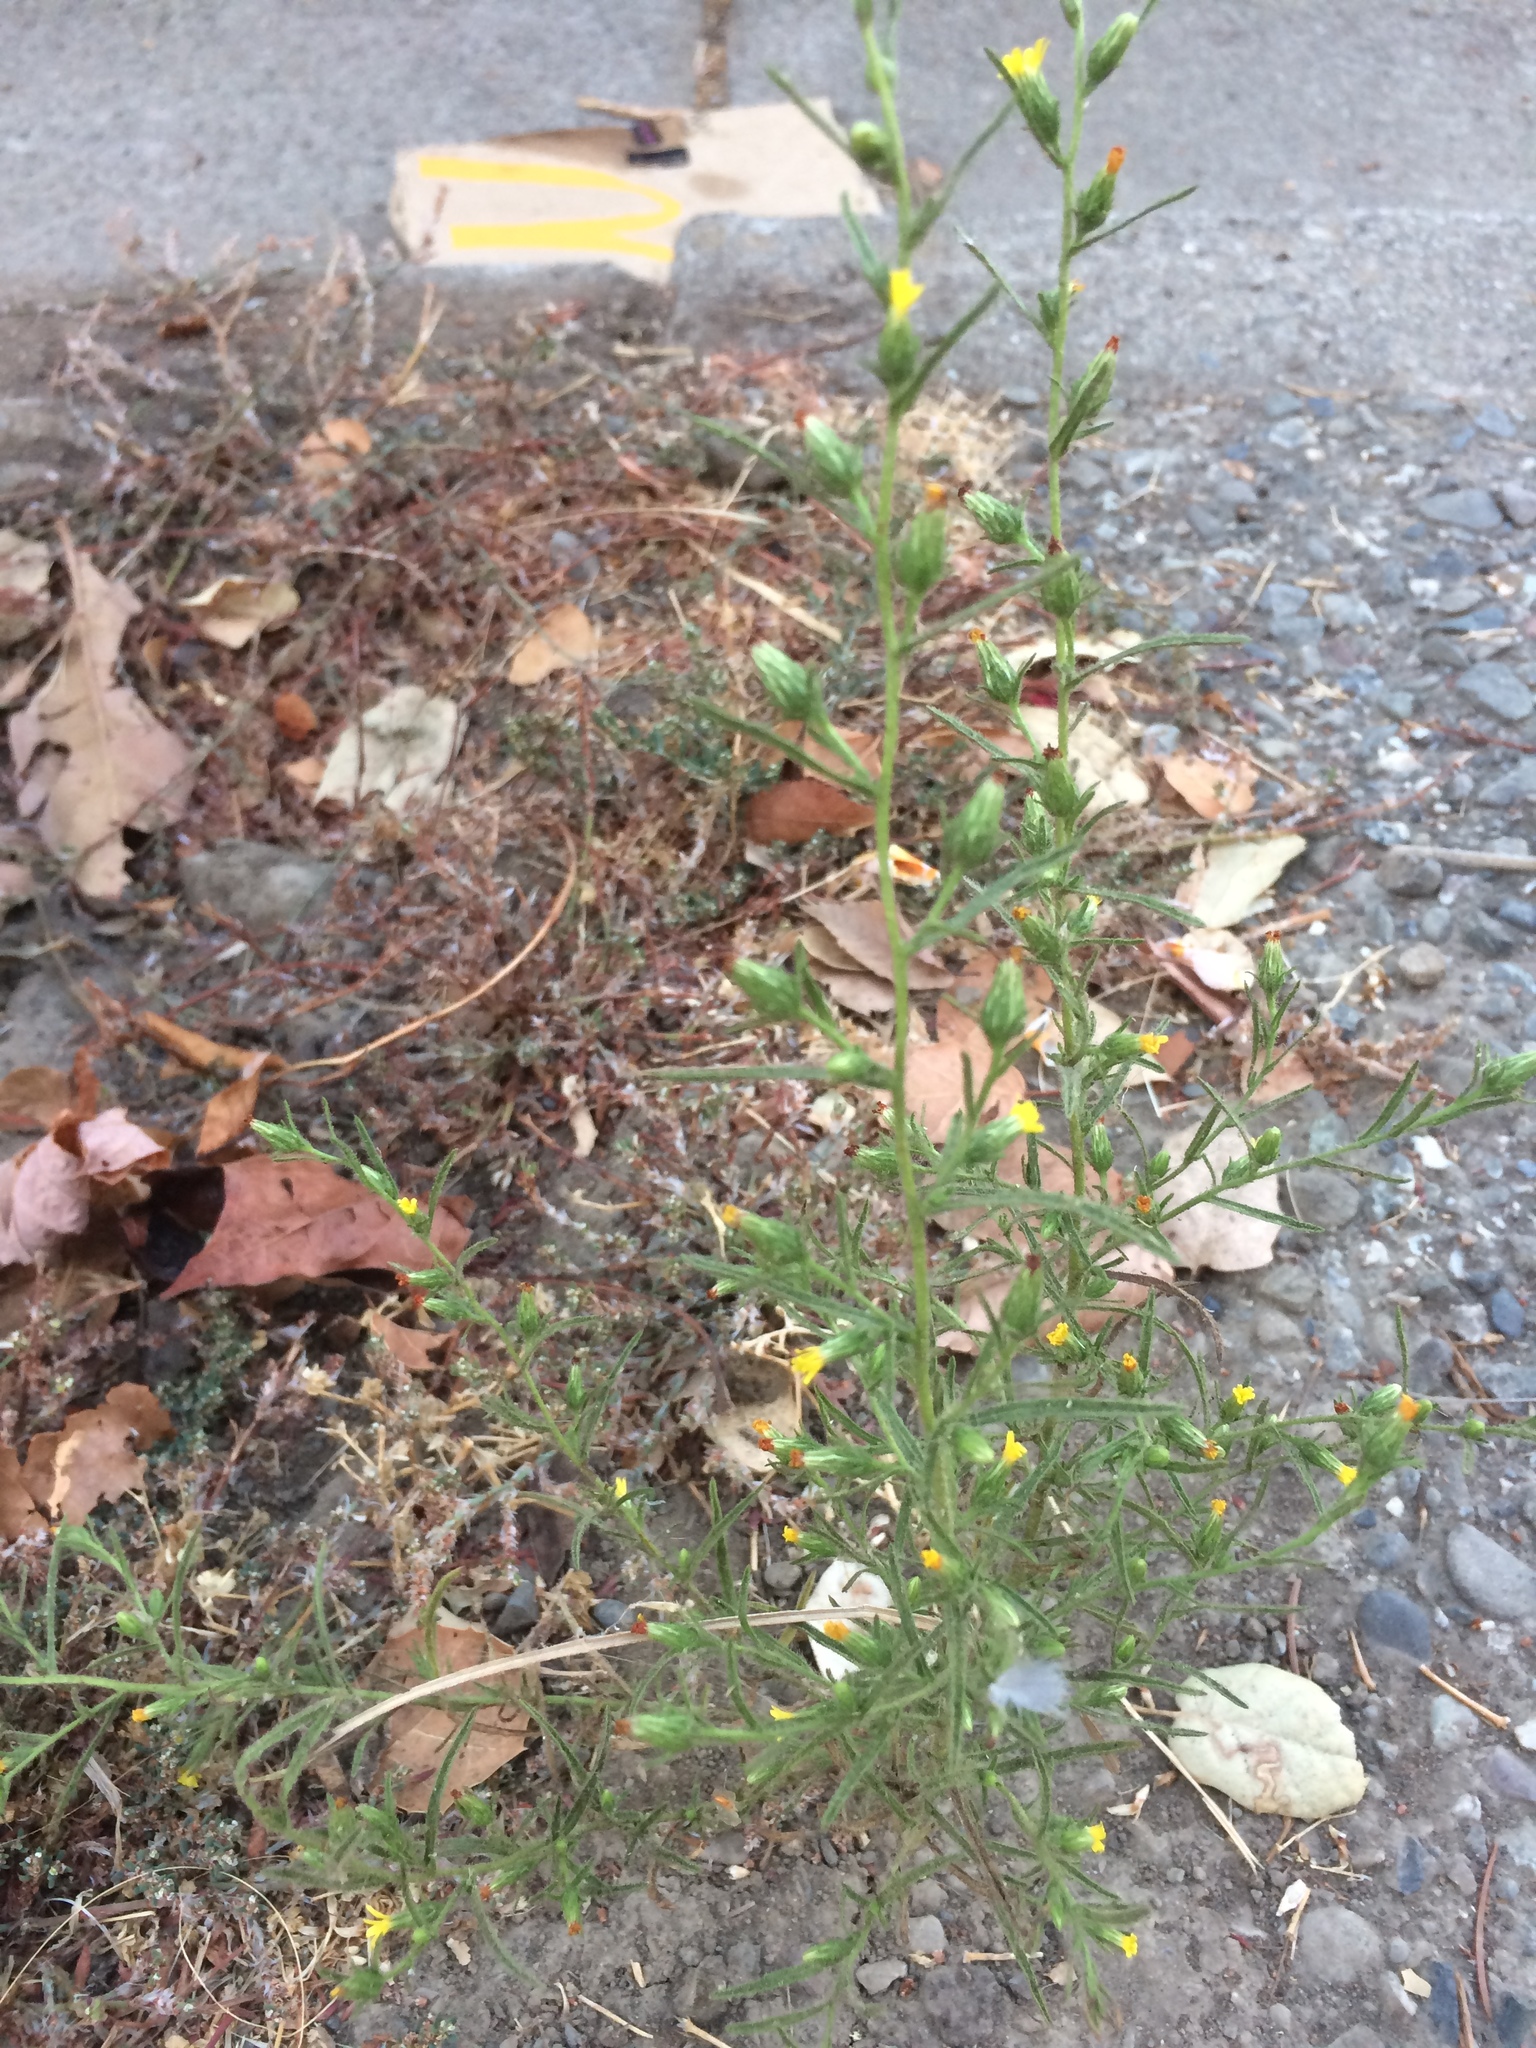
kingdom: Plantae
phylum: Tracheophyta
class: Magnoliopsida
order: Asterales
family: Asteraceae
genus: Dittrichia
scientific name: Dittrichia graveolens
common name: Stinking fleabane
